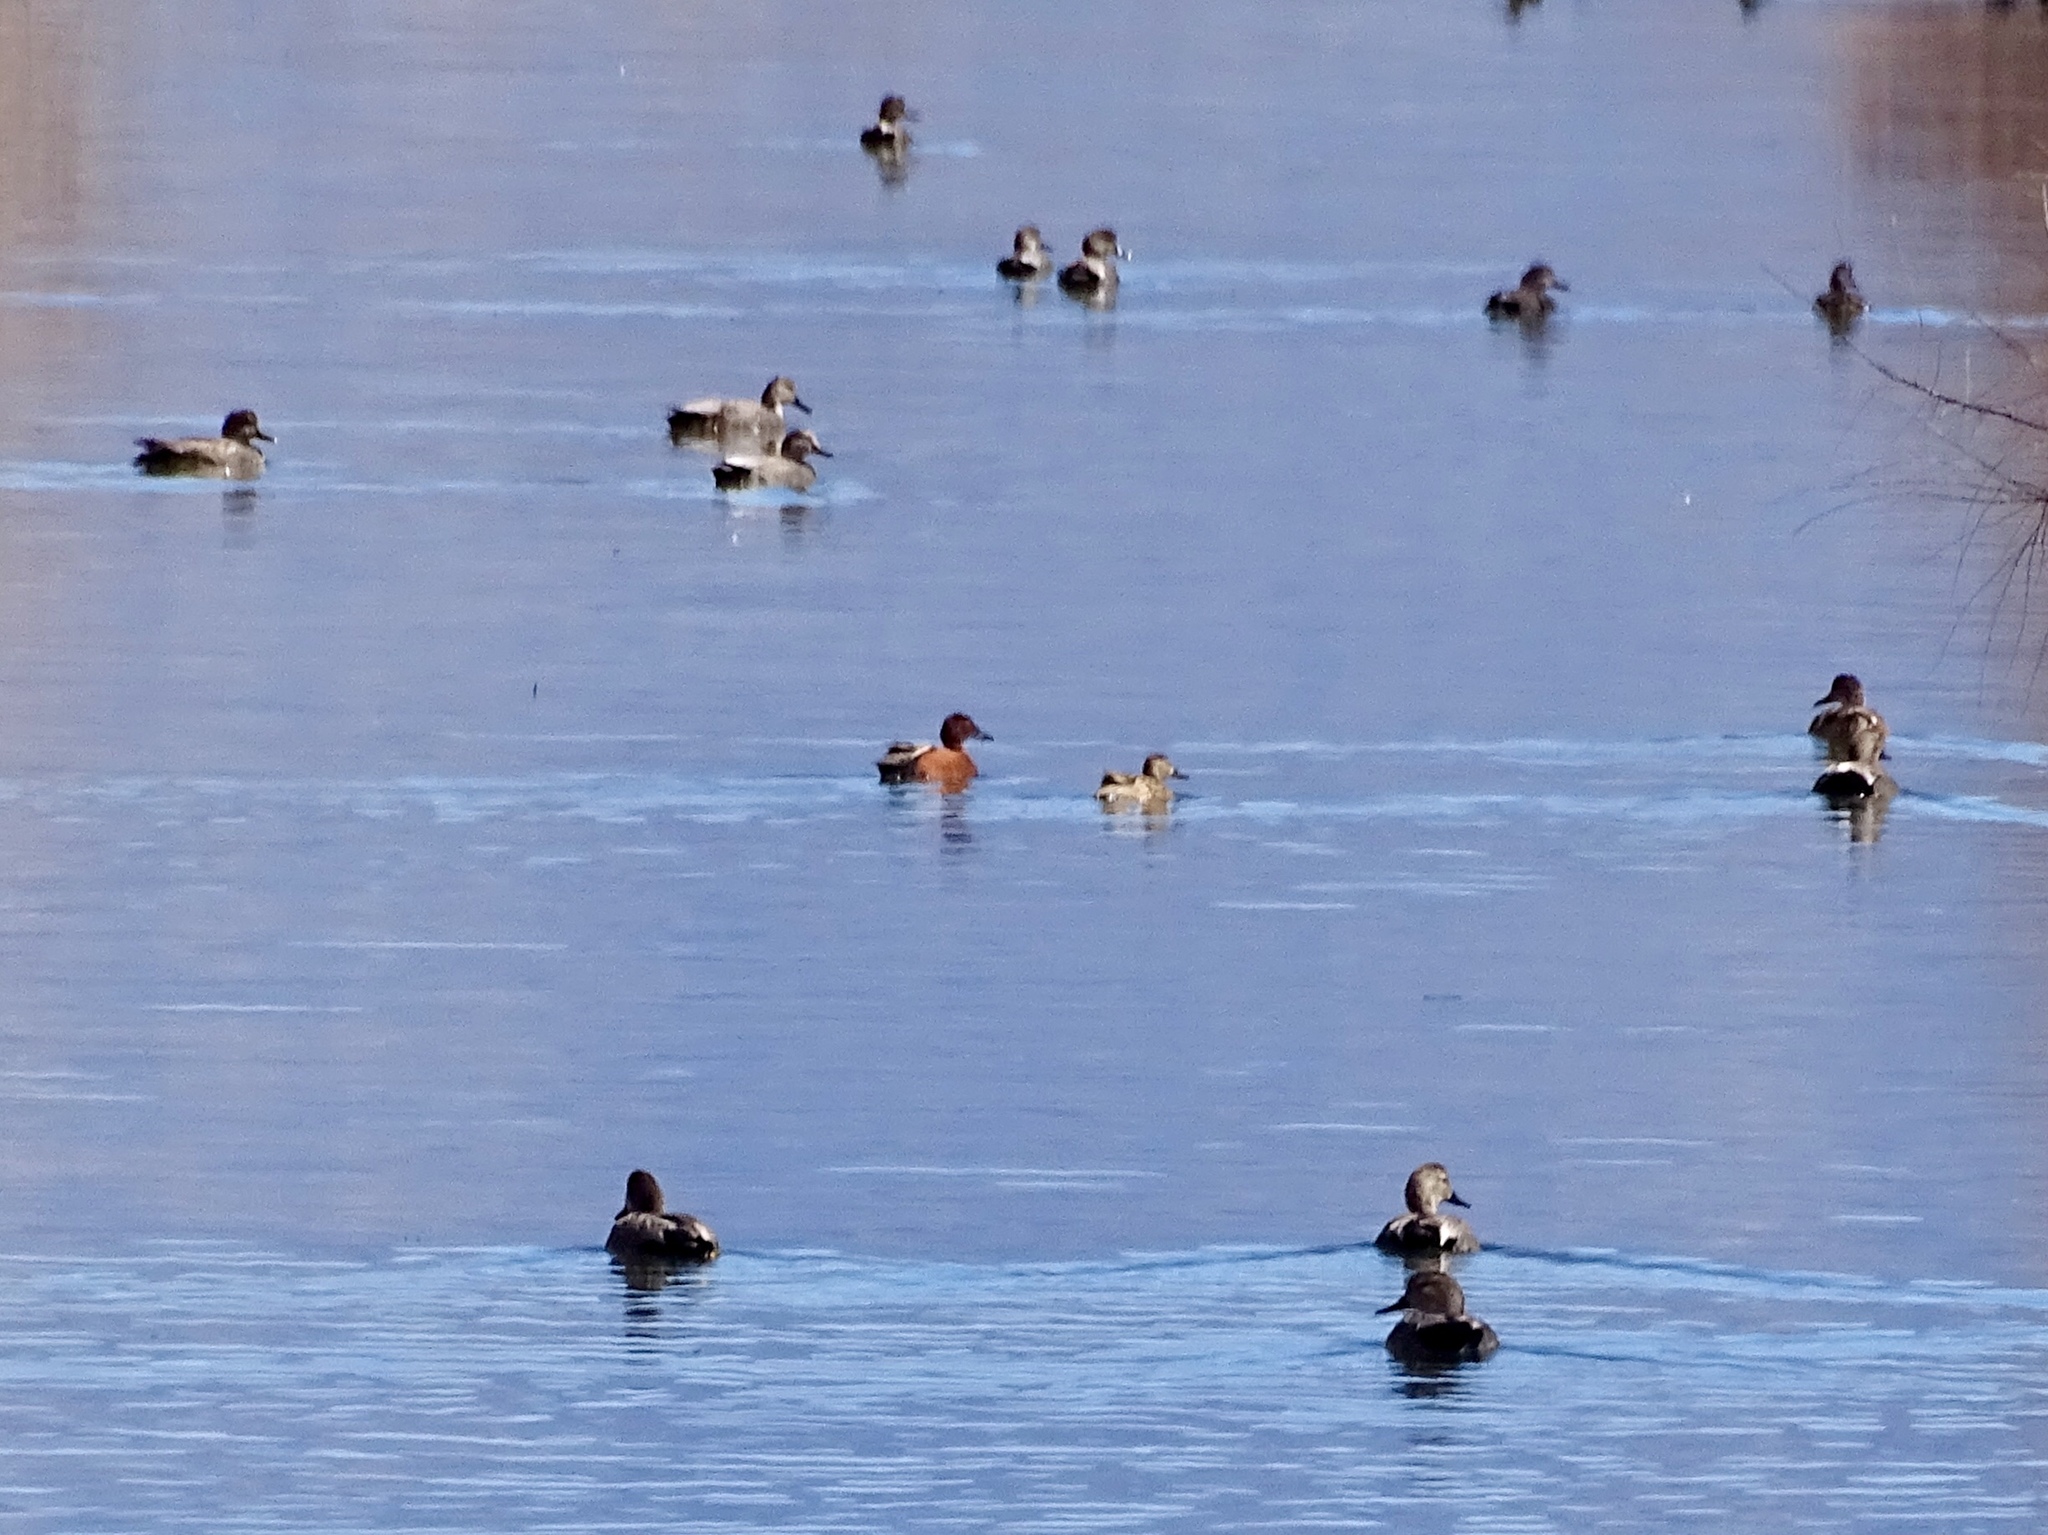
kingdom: Animalia
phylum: Chordata
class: Aves
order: Anseriformes
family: Anatidae
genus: Spatula
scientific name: Spatula cyanoptera
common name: Cinnamon teal
